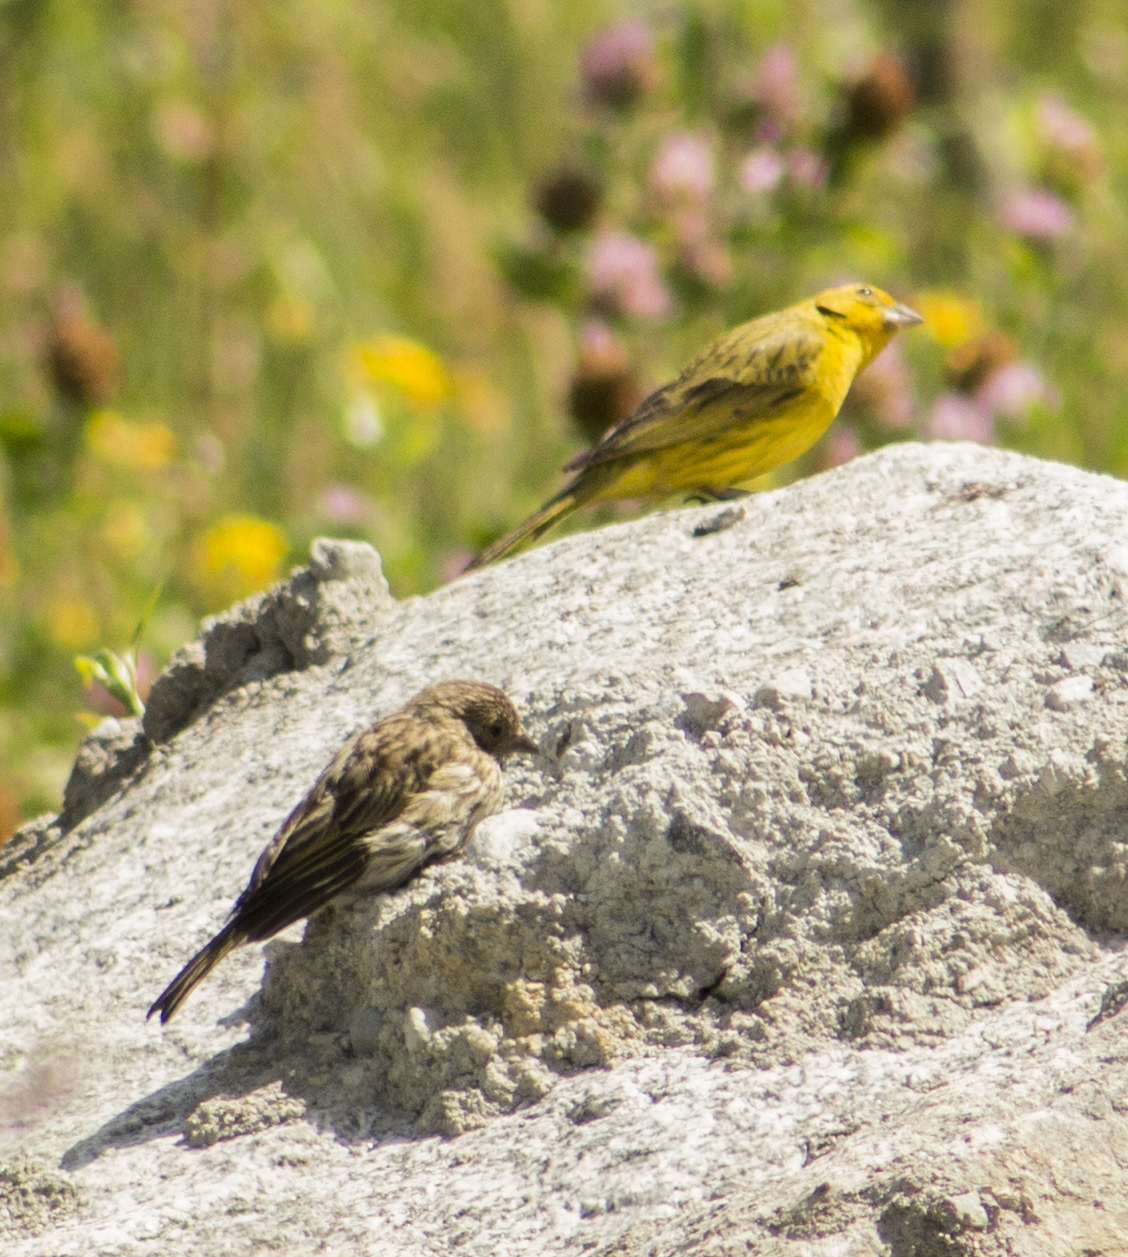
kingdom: Animalia
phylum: Chordata
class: Aves
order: Passeriformes
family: Thraupidae
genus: Sicalis
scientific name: Sicalis flaveola
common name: Saffron finch
